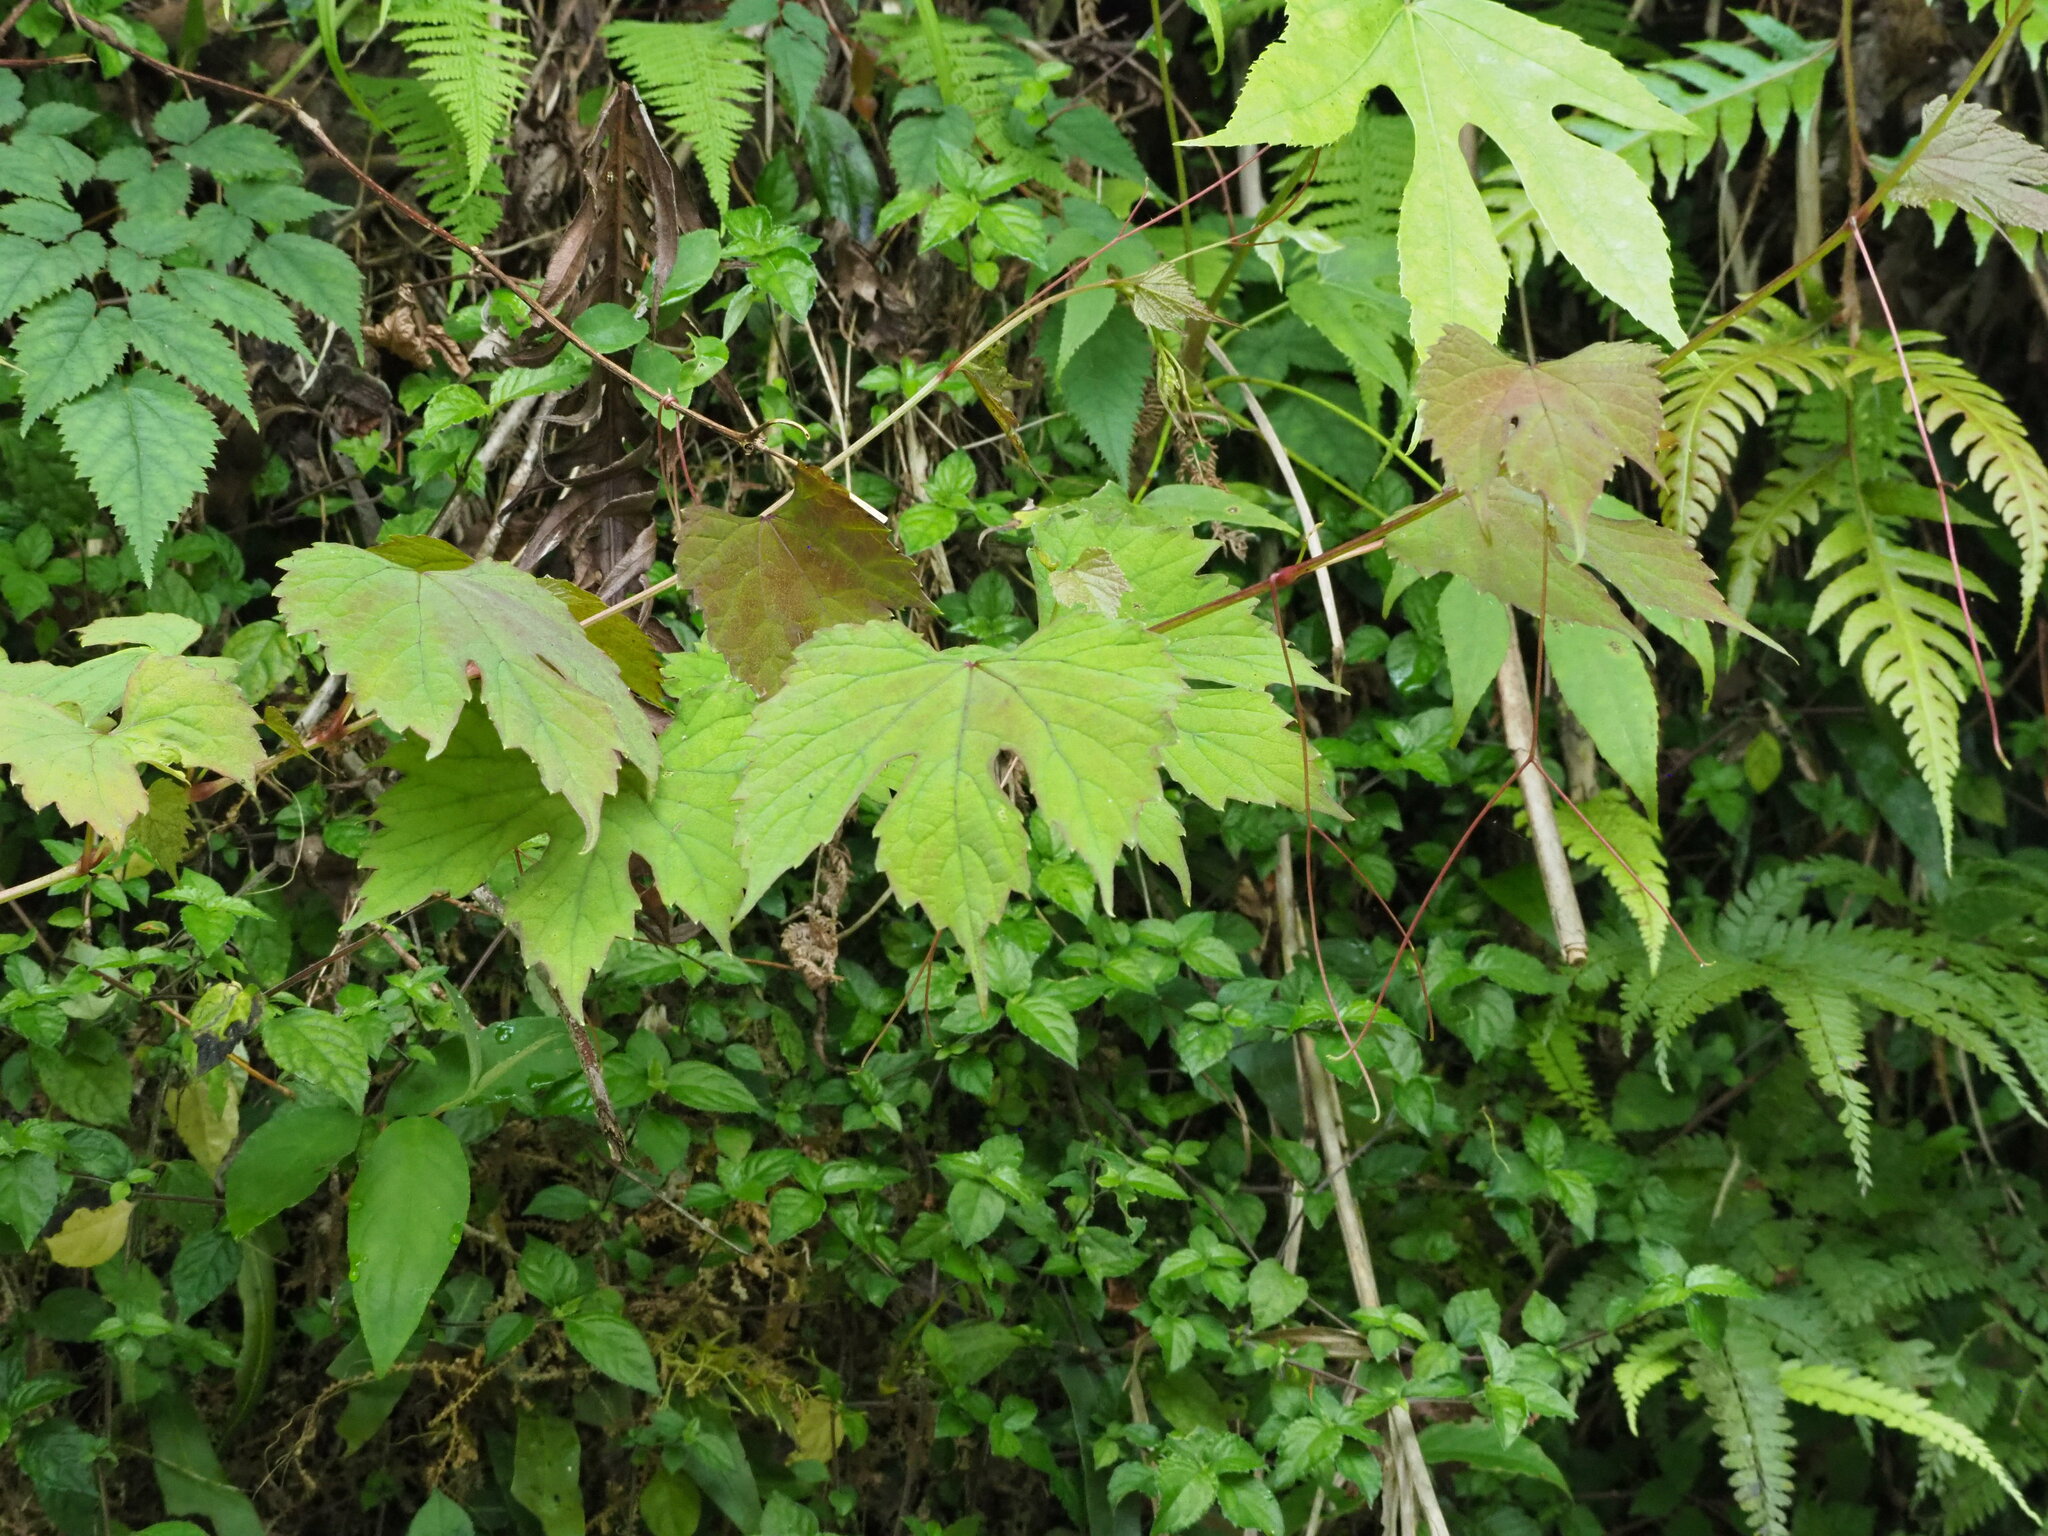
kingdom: Plantae
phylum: Tracheophyta
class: Magnoliopsida
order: Vitales
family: Vitaceae
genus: Ampelopsis
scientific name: Ampelopsis glandulosa
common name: Amur peppervine
